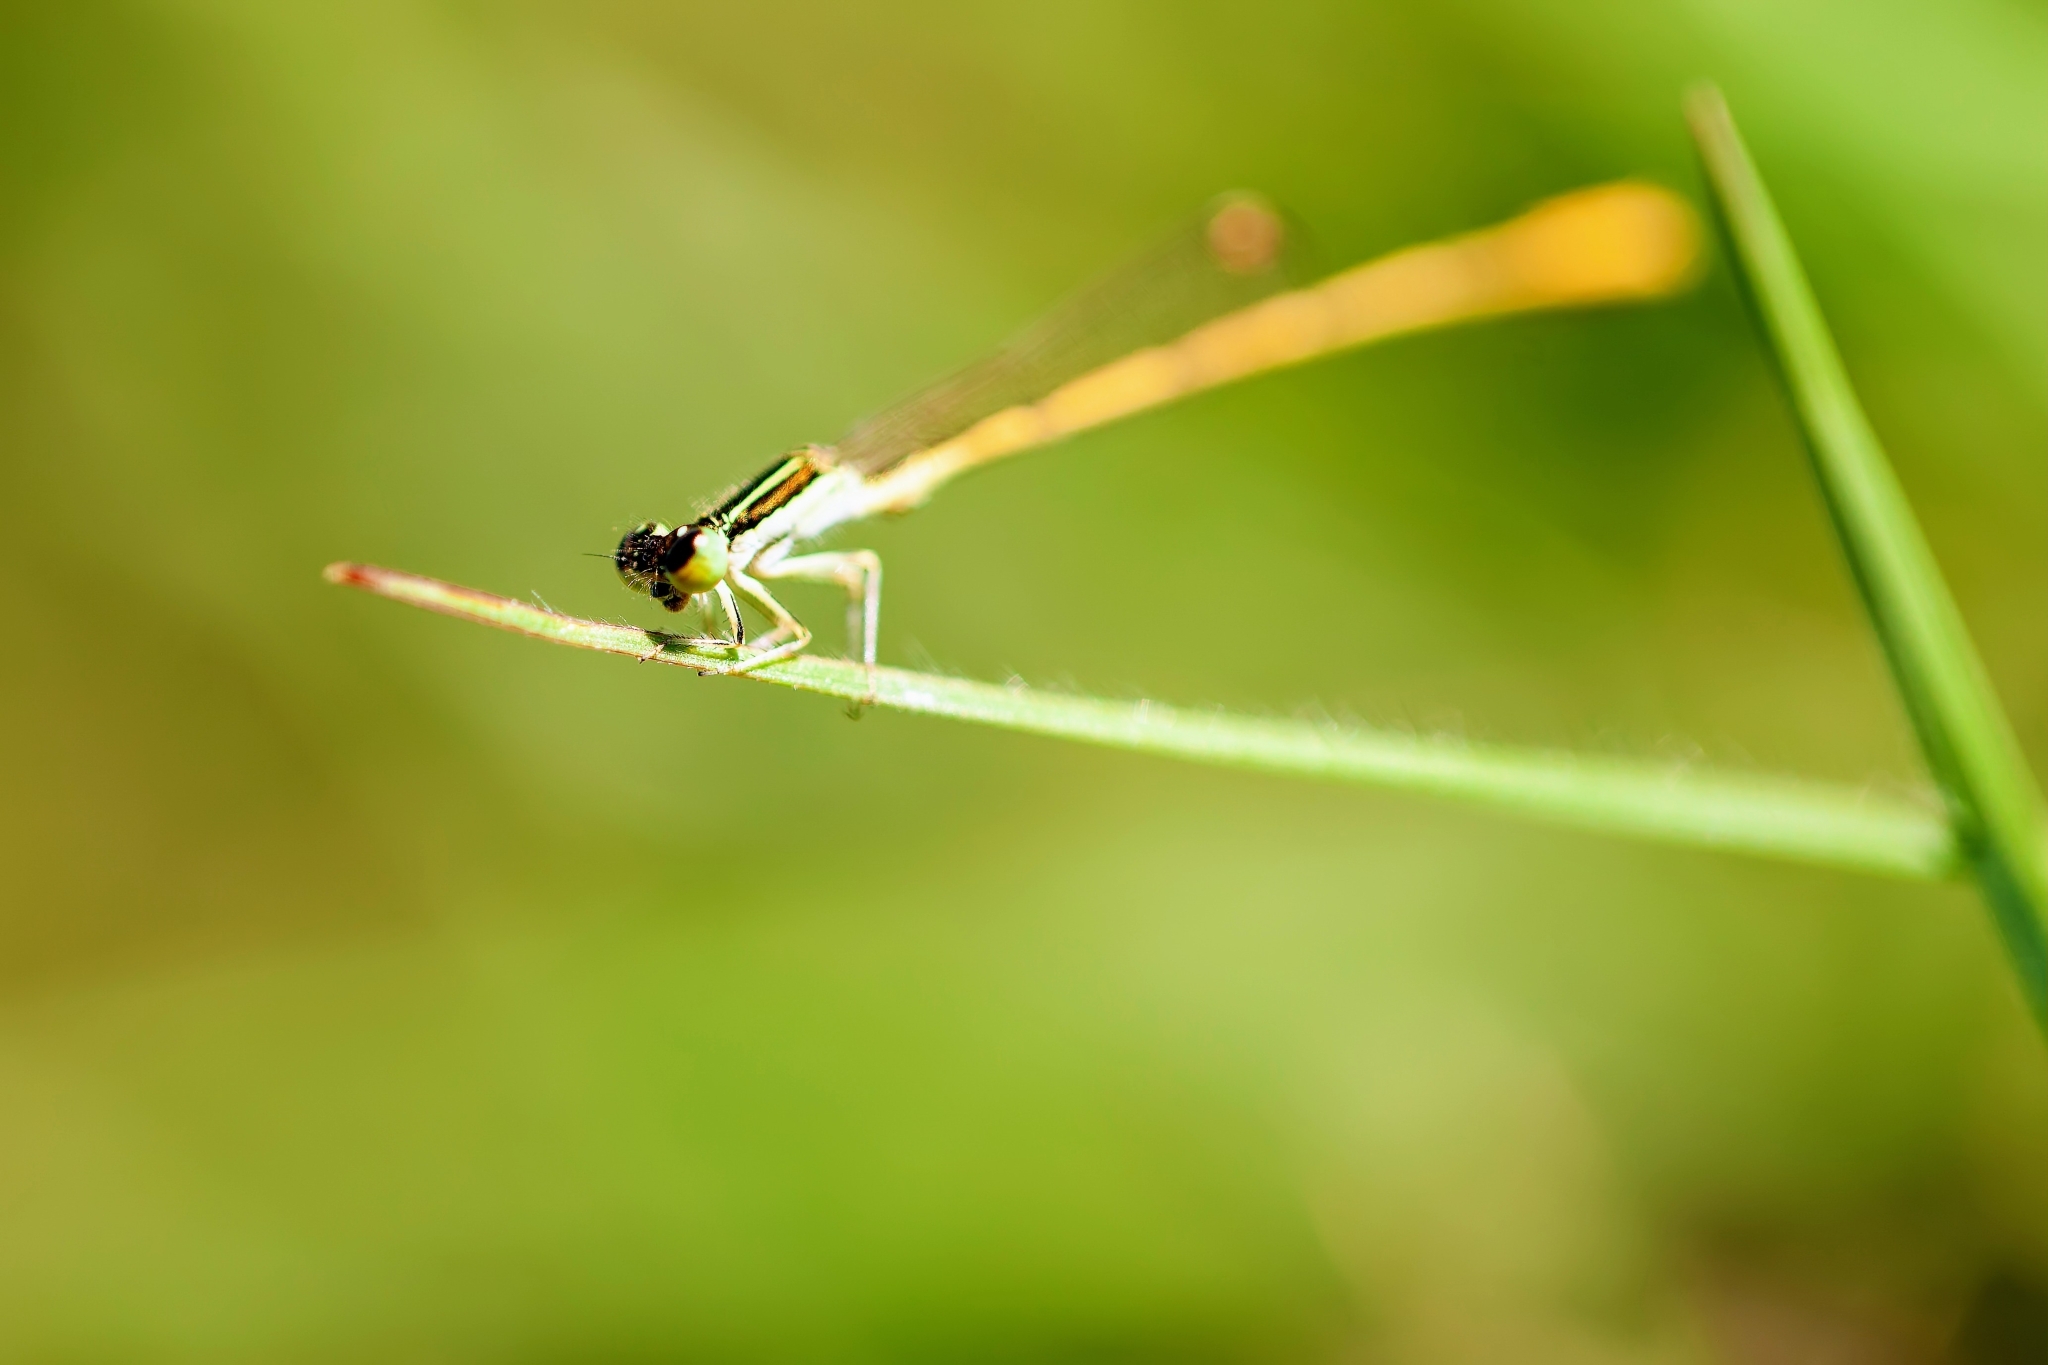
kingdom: Animalia
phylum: Arthropoda
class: Insecta
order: Odonata
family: Coenagrionidae
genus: Ischnura
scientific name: Ischnura hastata
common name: Citrine forktail
